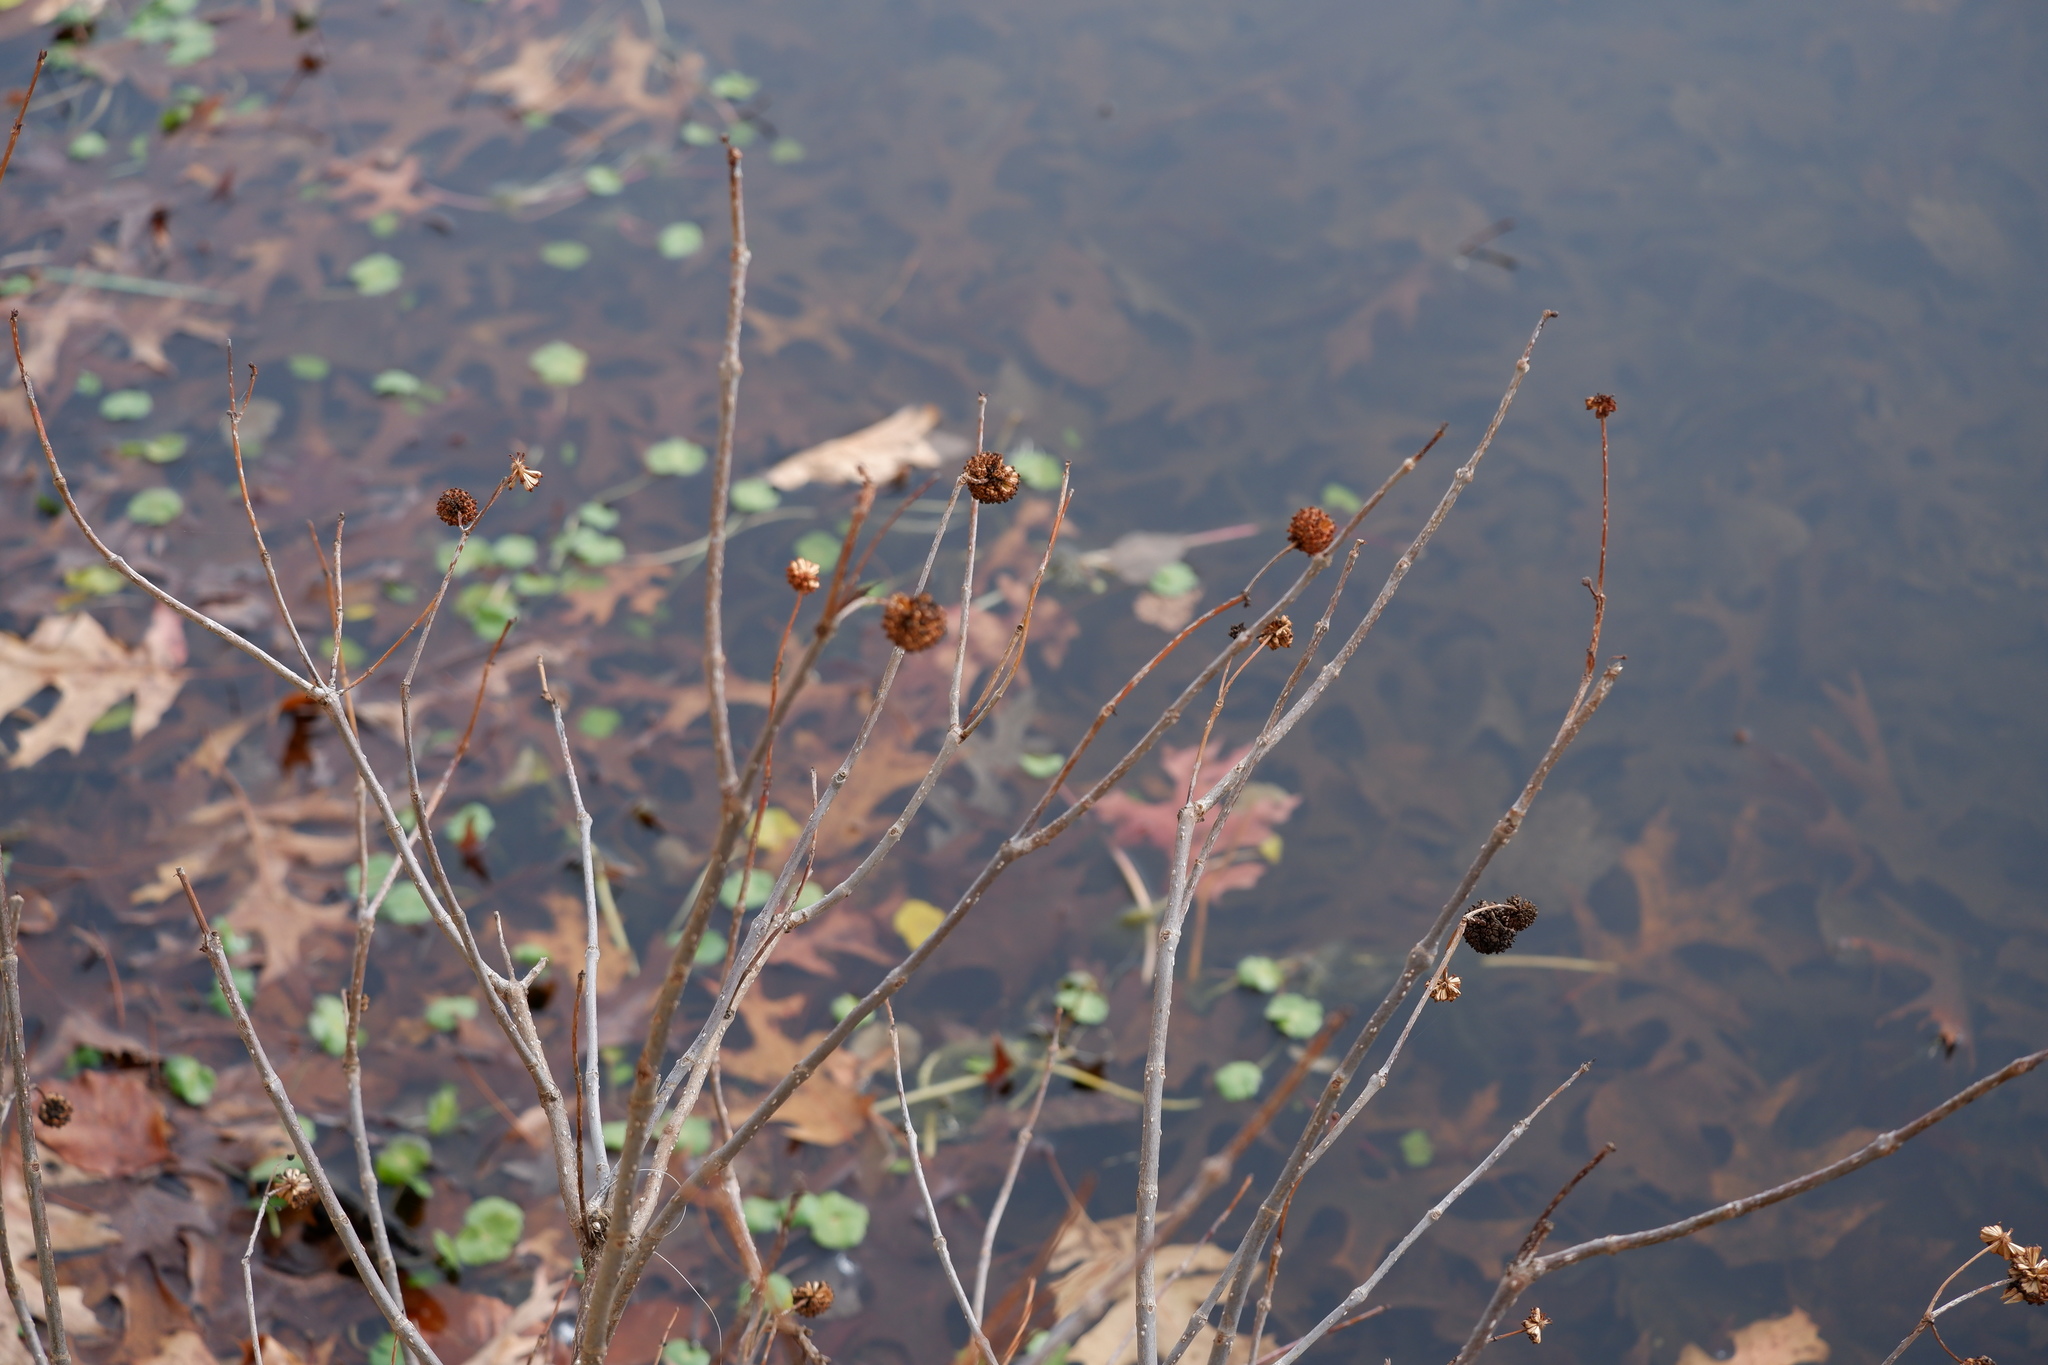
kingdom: Plantae
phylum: Tracheophyta
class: Magnoliopsida
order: Gentianales
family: Rubiaceae
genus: Cephalanthus
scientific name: Cephalanthus occidentalis
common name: Button-willow
